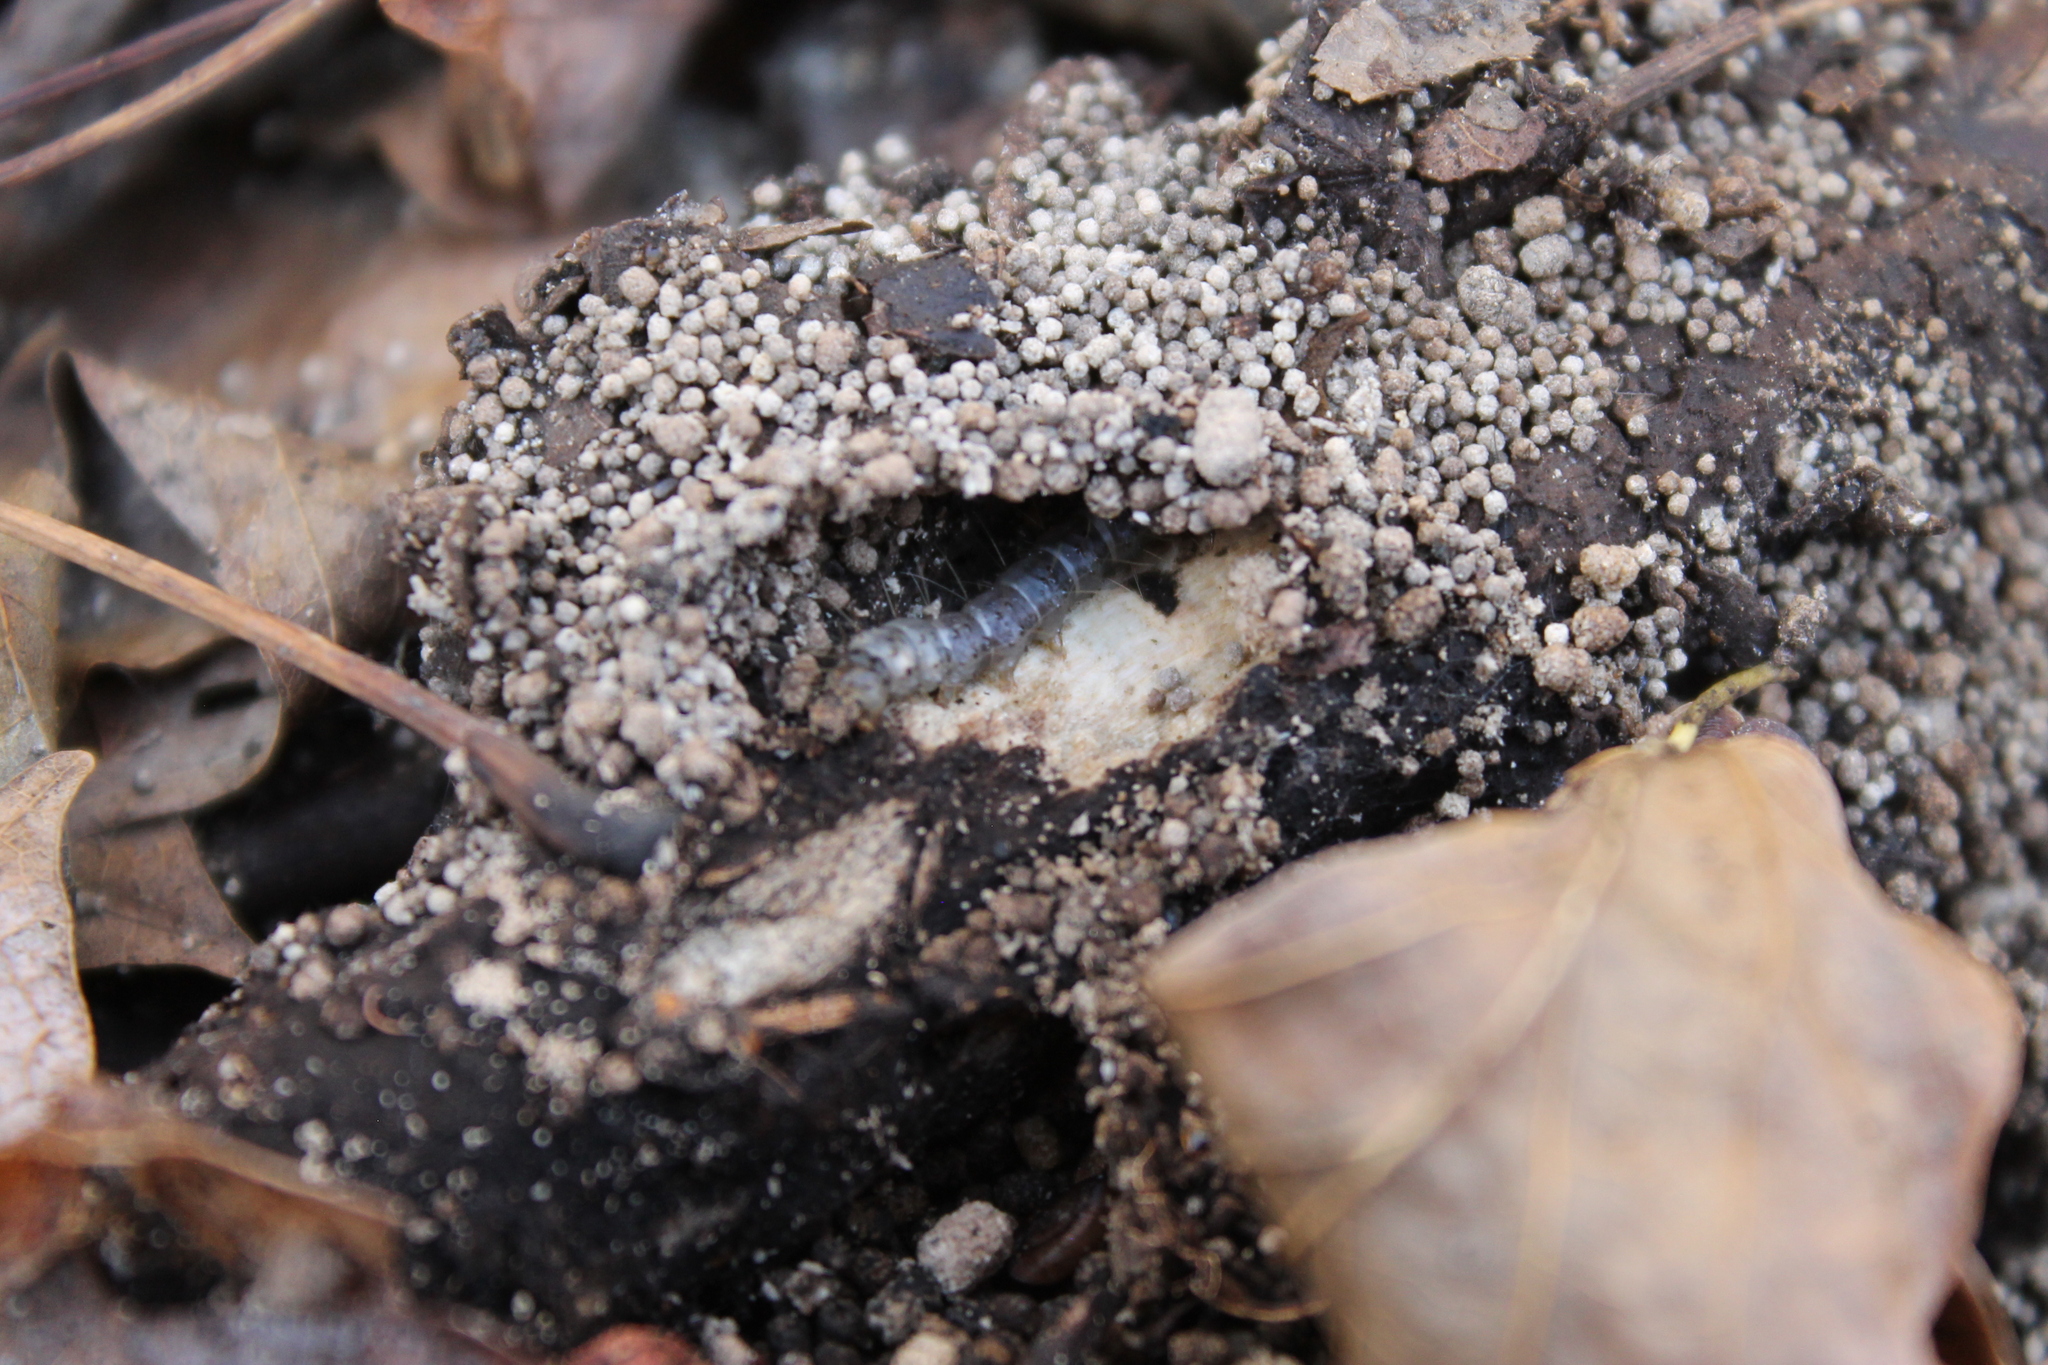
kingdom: Animalia
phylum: Arthropoda
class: Insecta
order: Lepidoptera
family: Erebidae
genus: Scolecocampa
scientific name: Scolecocampa liburna
